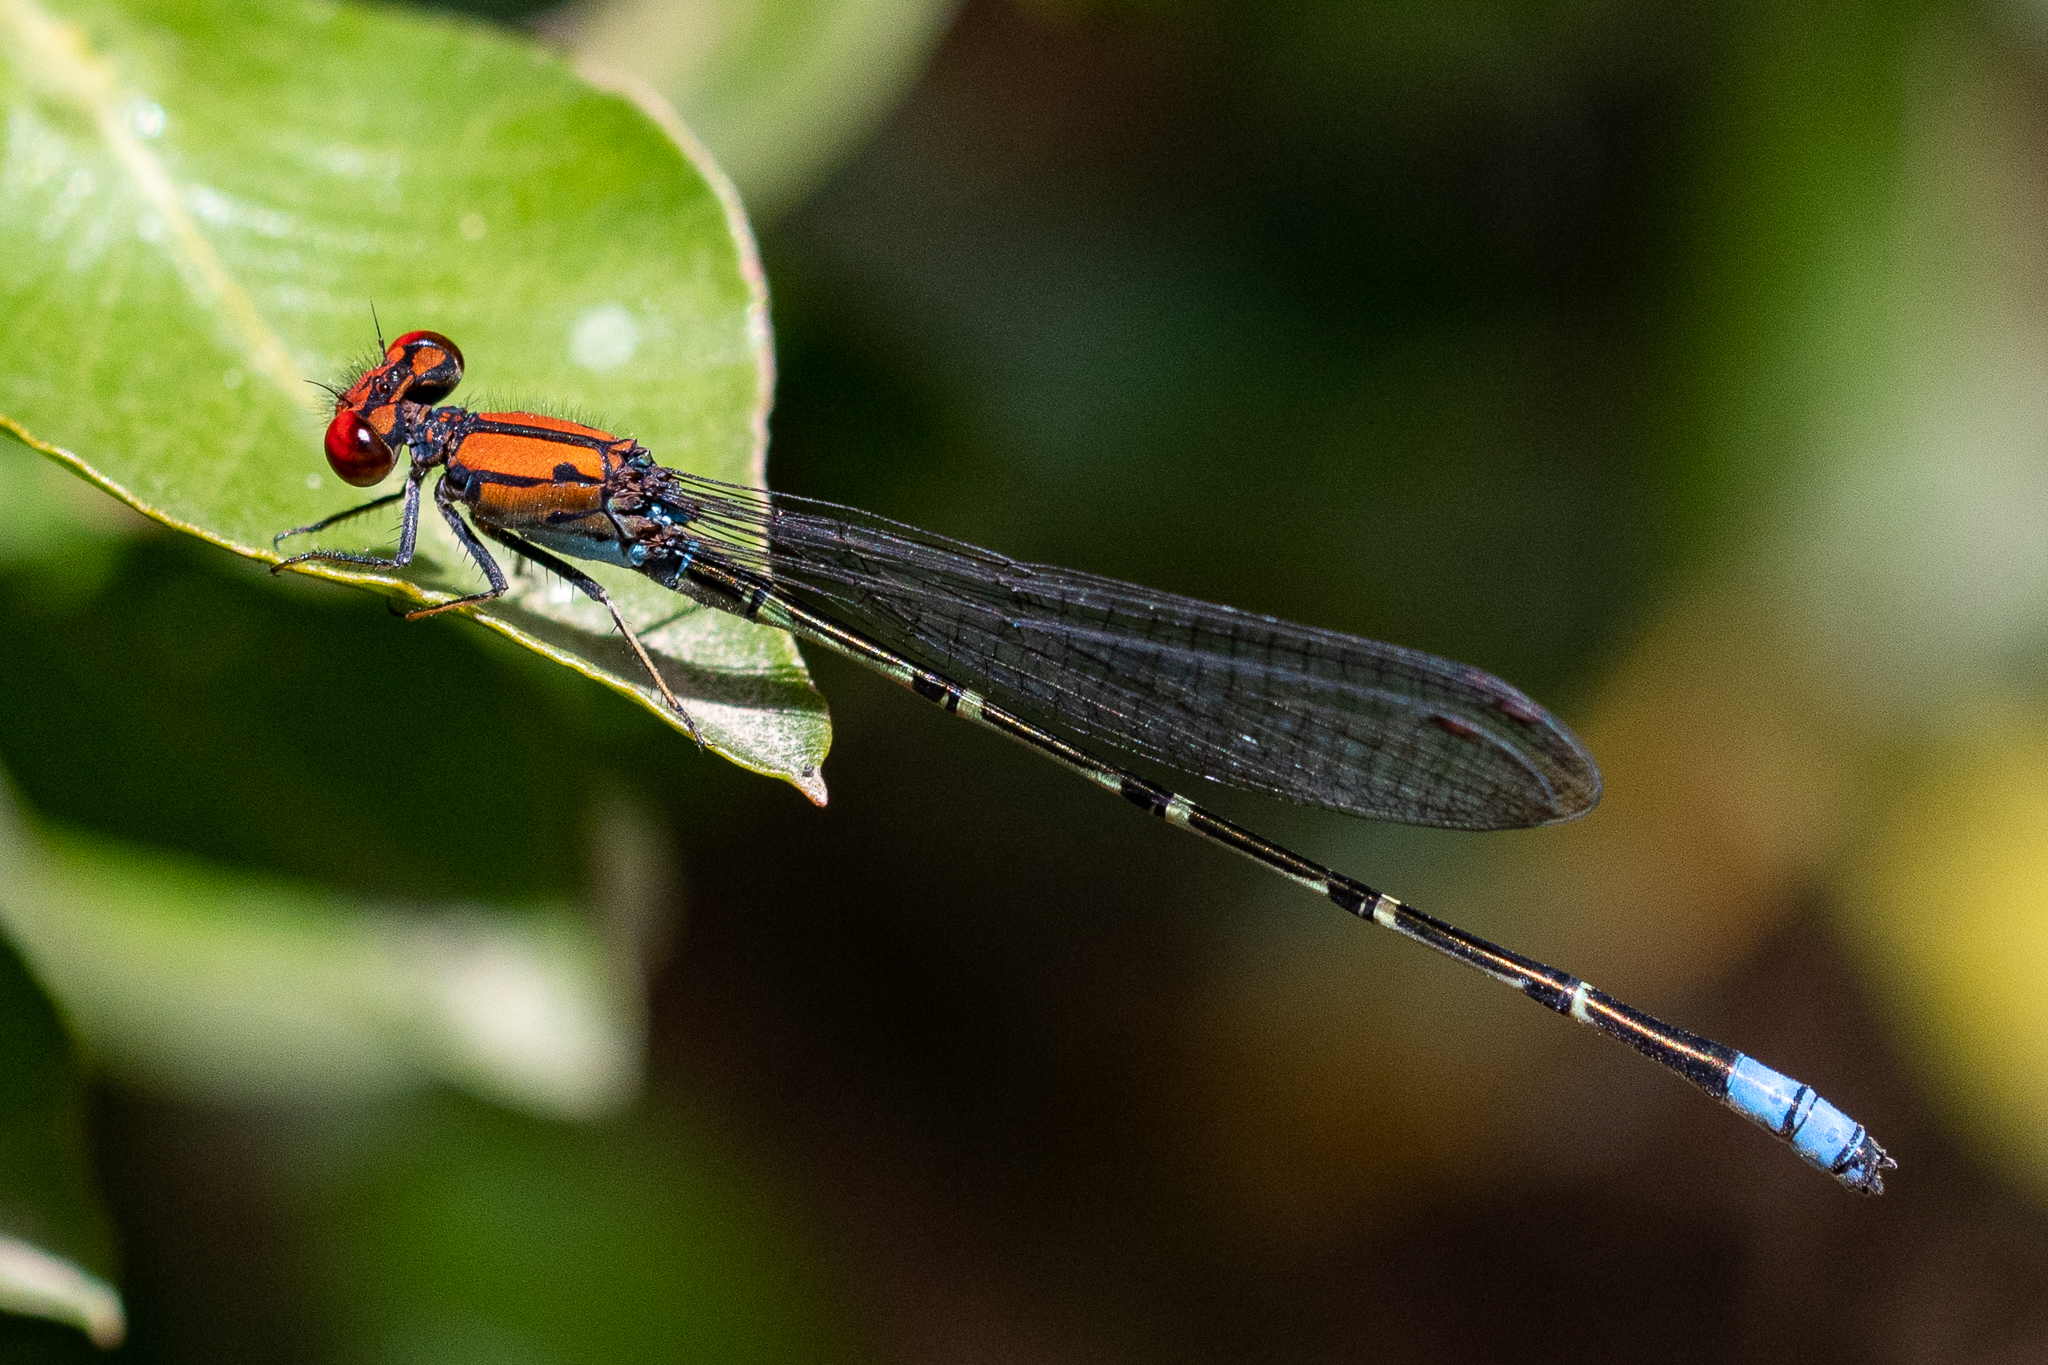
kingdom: Animalia
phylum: Arthropoda
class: Insecta
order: Odonata
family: Coenagrionidae
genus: Pseudagrion
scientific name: Pseudagrion massaicum
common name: Masai sprite
